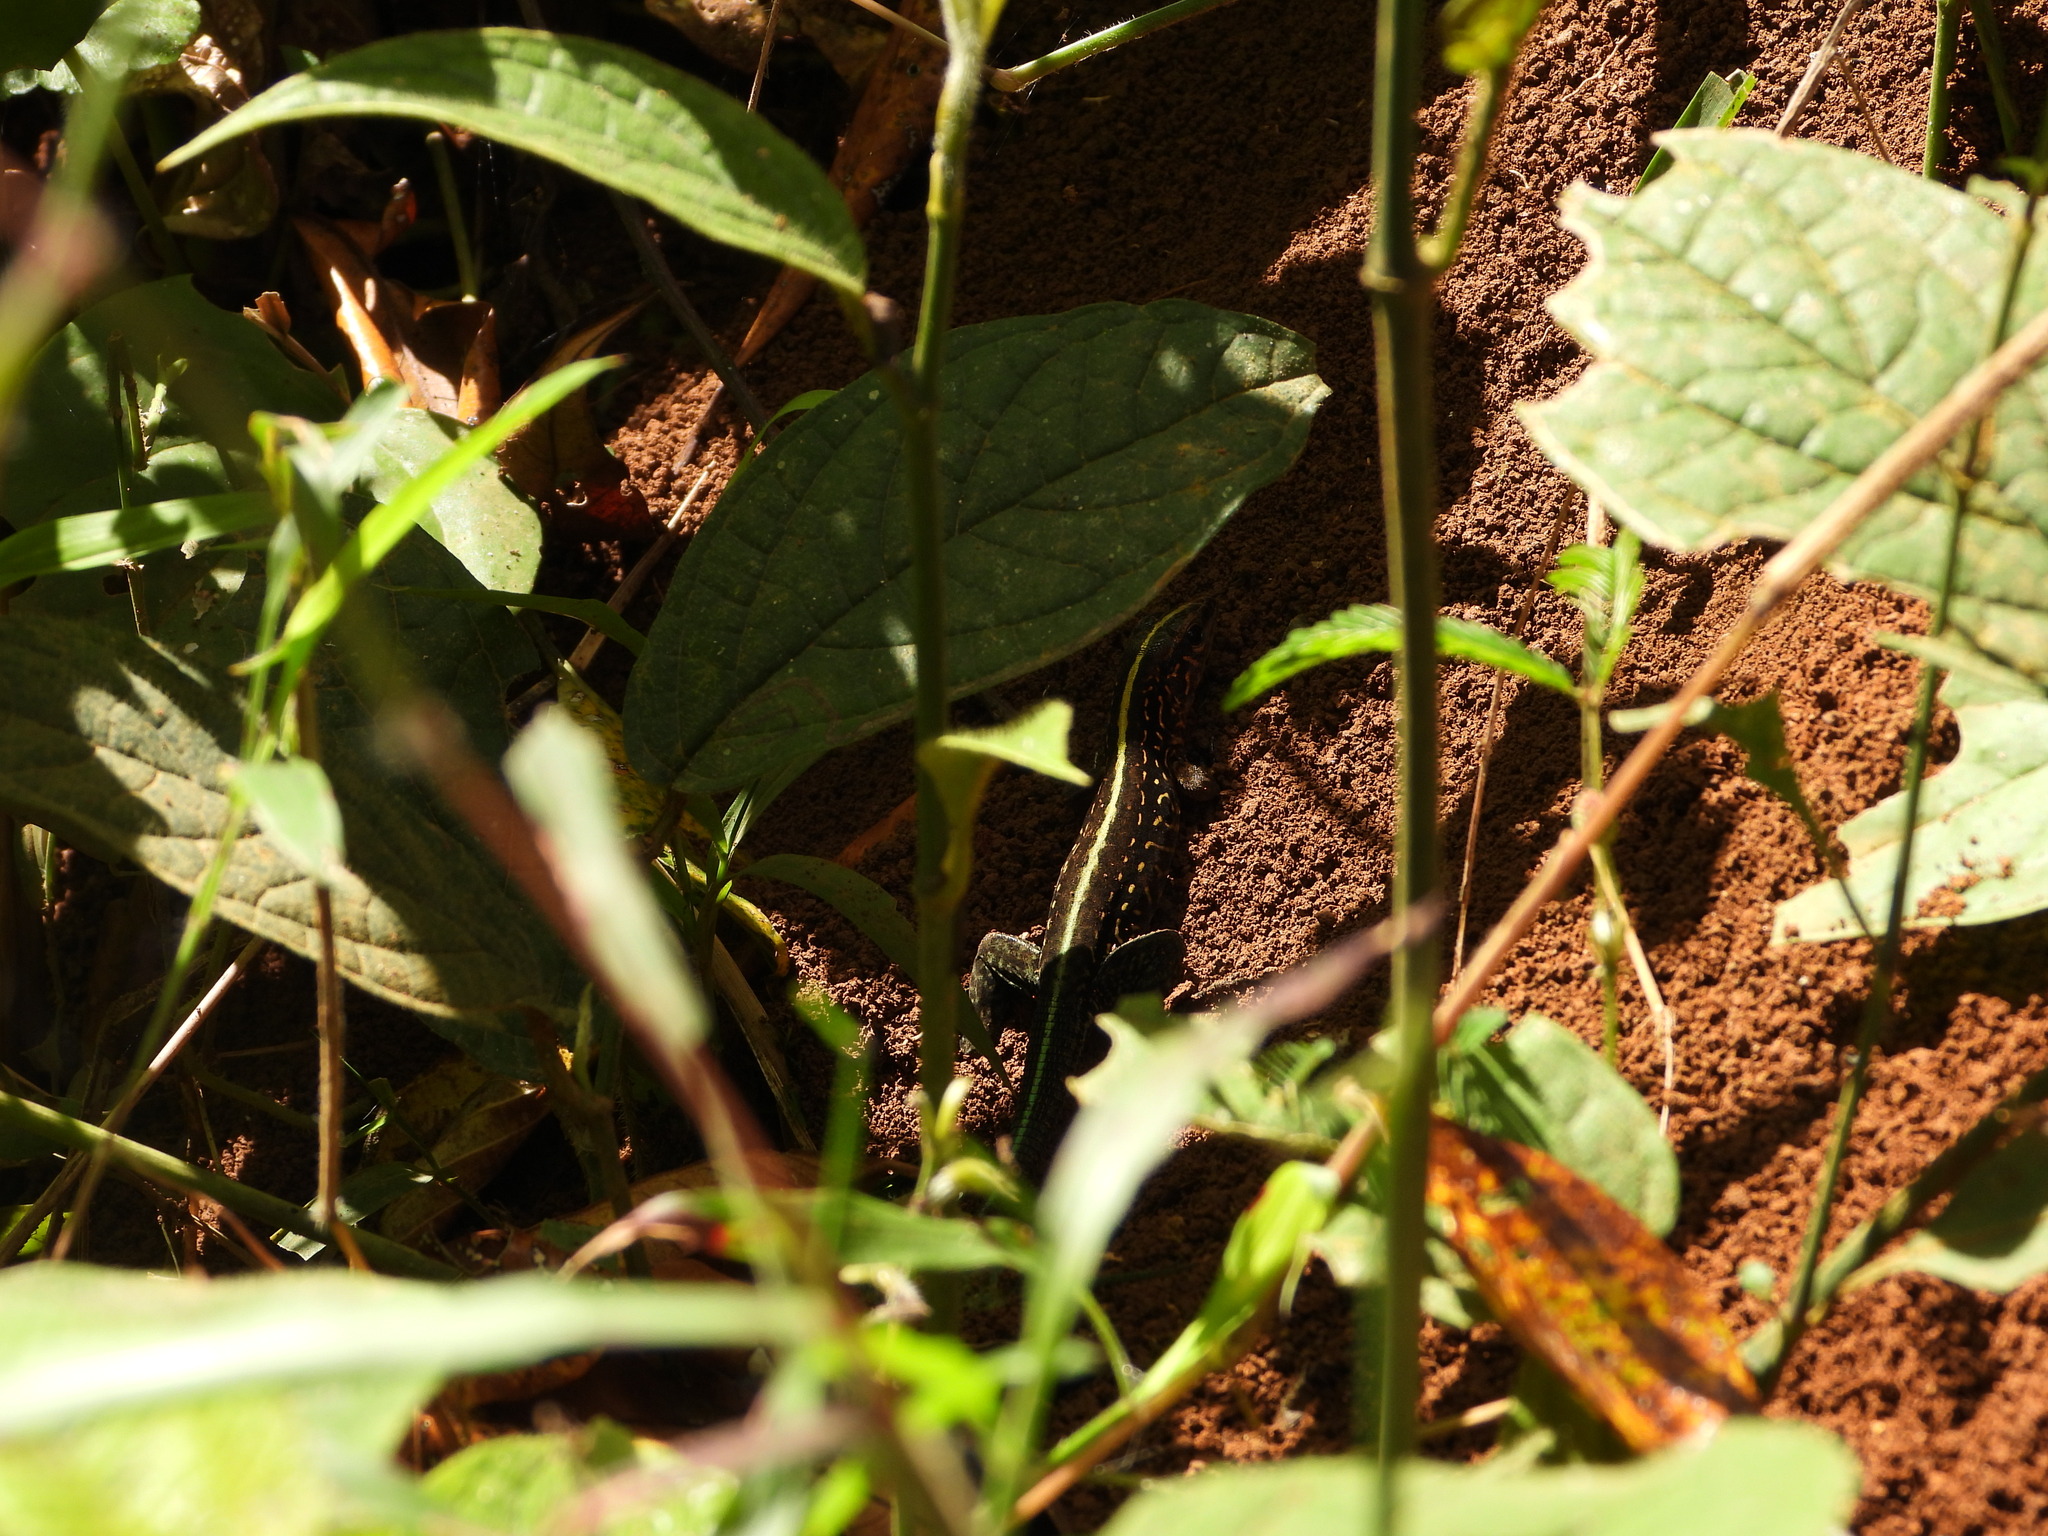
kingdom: Animalia
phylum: Chordata
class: Squamata
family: Teiidae
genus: Holcosus
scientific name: Holcosus festivus
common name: Middle american ameiva
